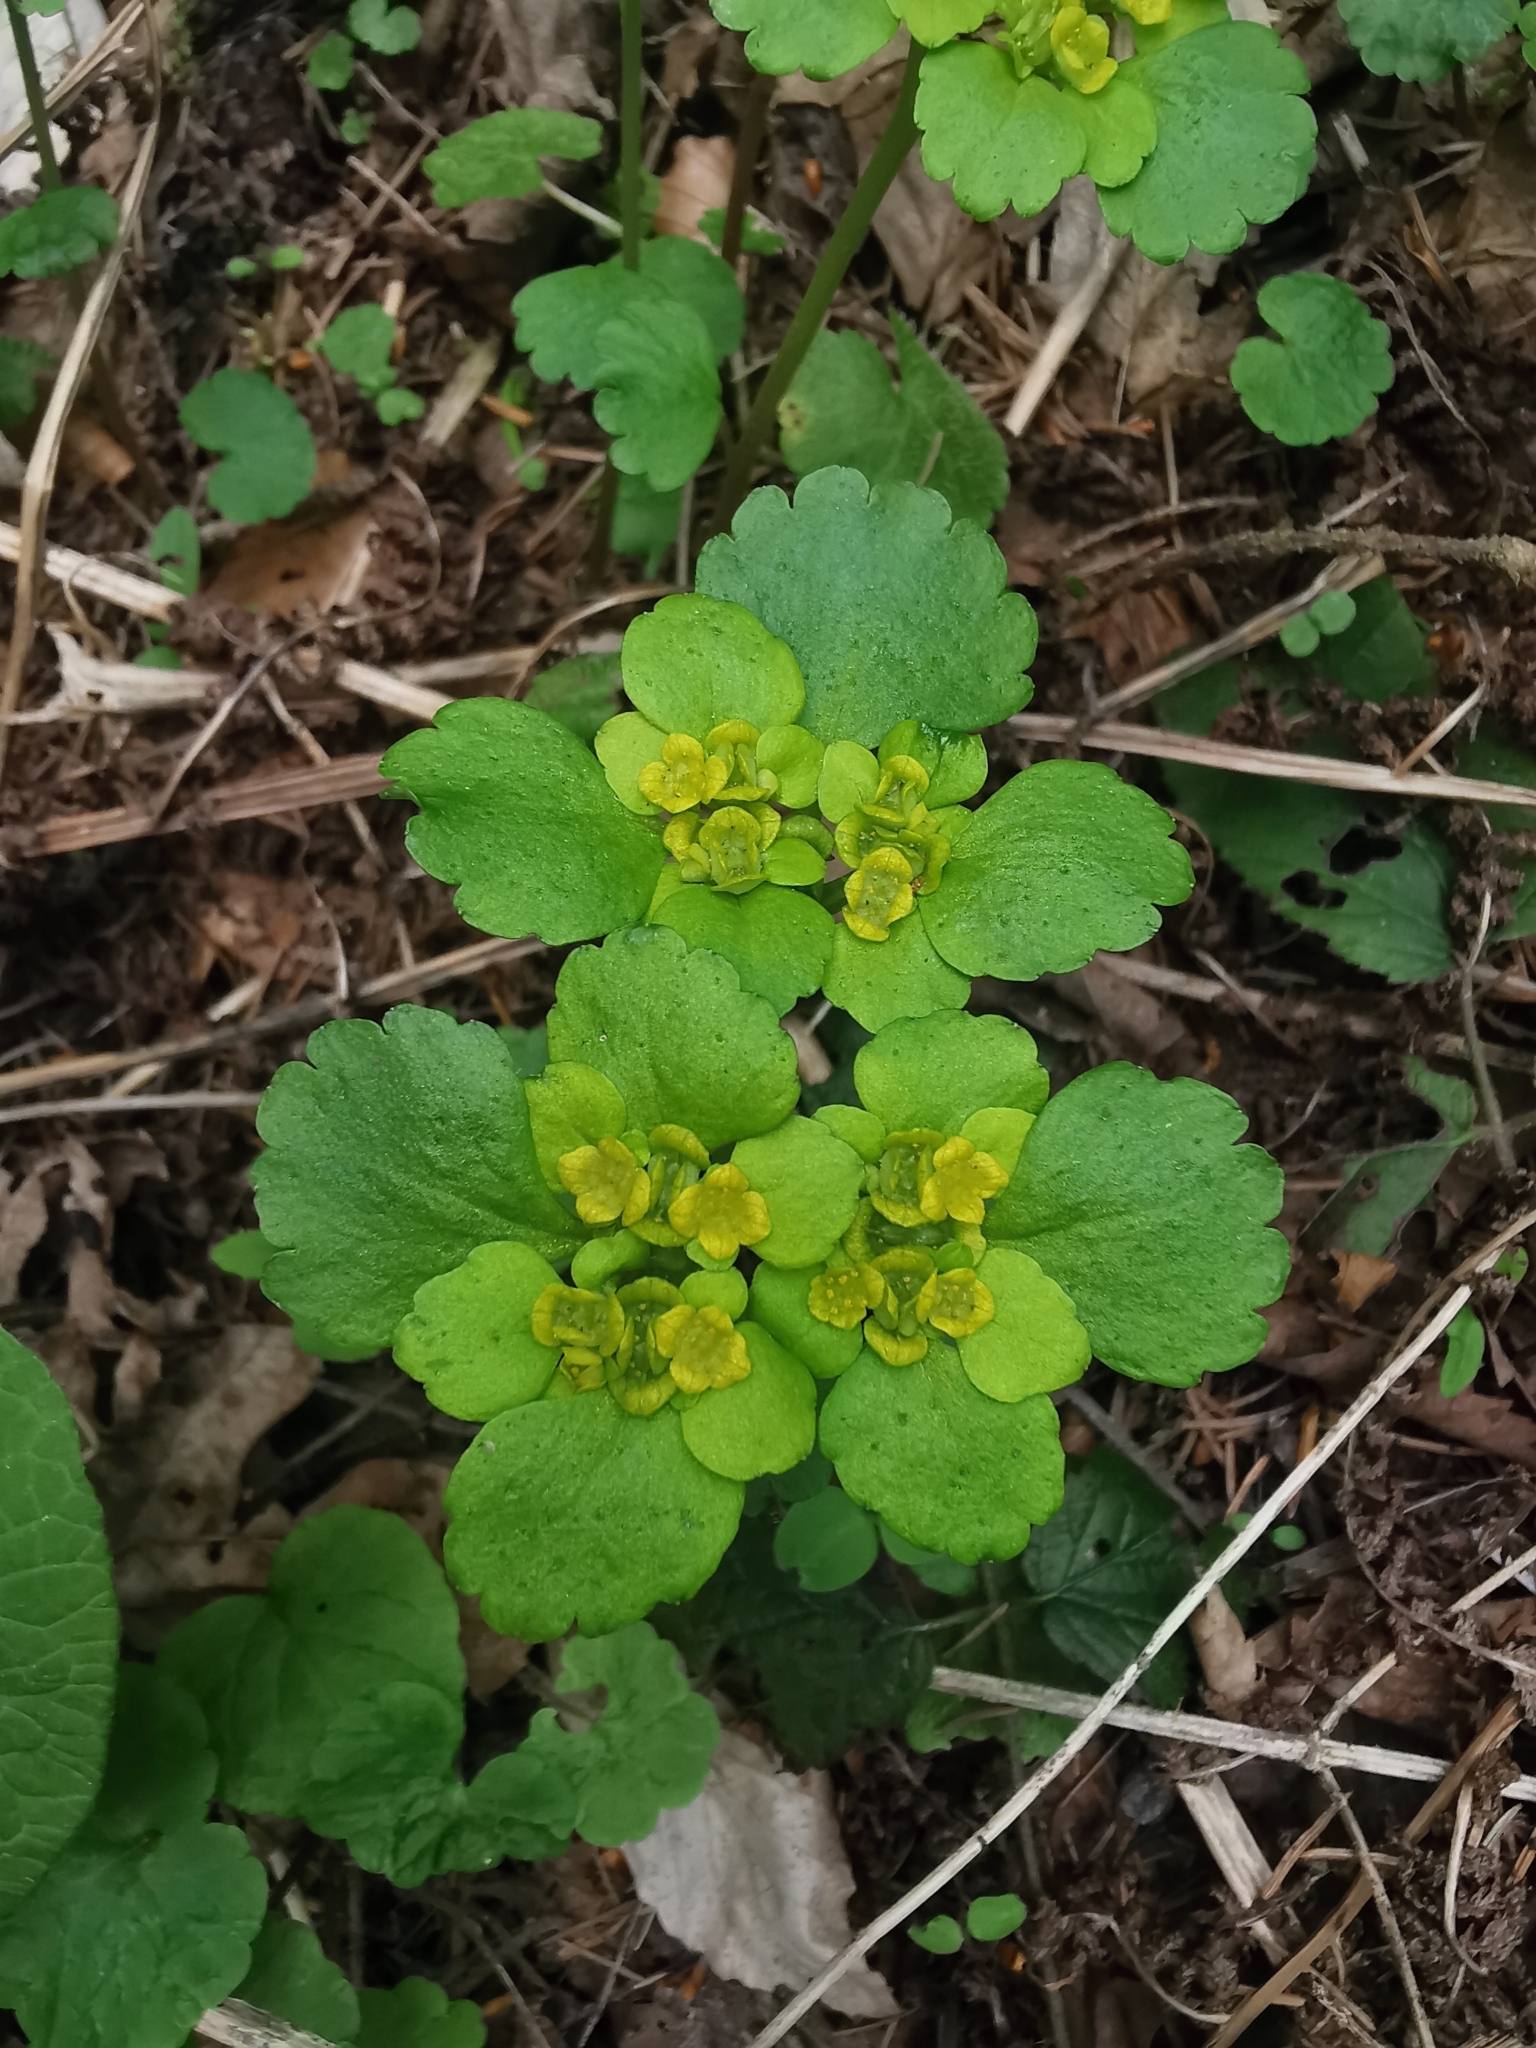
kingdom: Plantae
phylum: Tracheophyta
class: Magnoliopsida
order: Saxifragales
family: Saxifragaceae
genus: Chrysosplenium
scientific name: Chrysosplenium alternifolium
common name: Alternate-leaved golden-saxifrage
